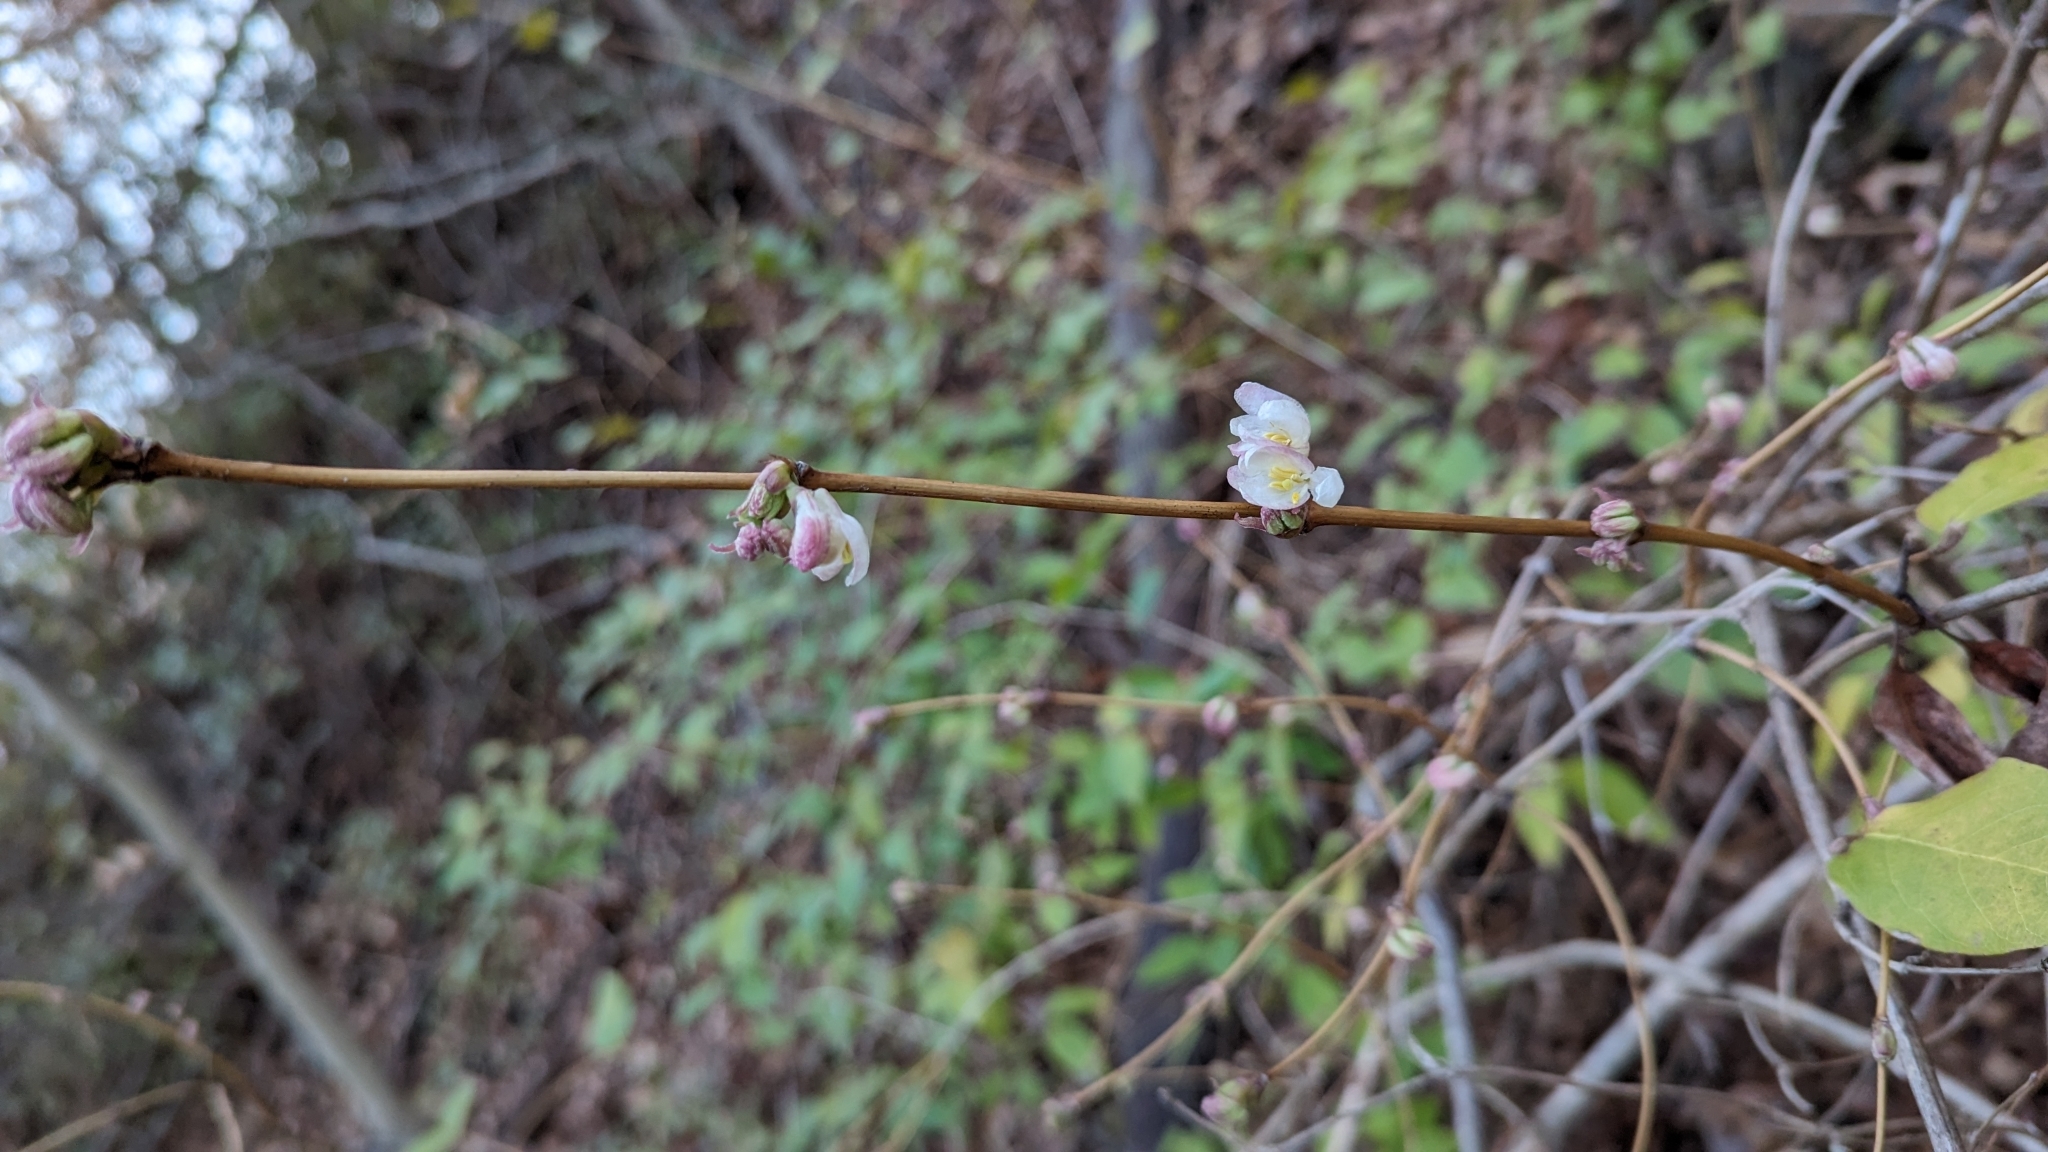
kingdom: Plantae
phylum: Tracheophyta
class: Magnoliopsida
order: Dipsacales
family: Caprifoliaceae
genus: Lonicera
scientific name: Lonicera fragrantissima
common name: Fragrant honeysuckle
